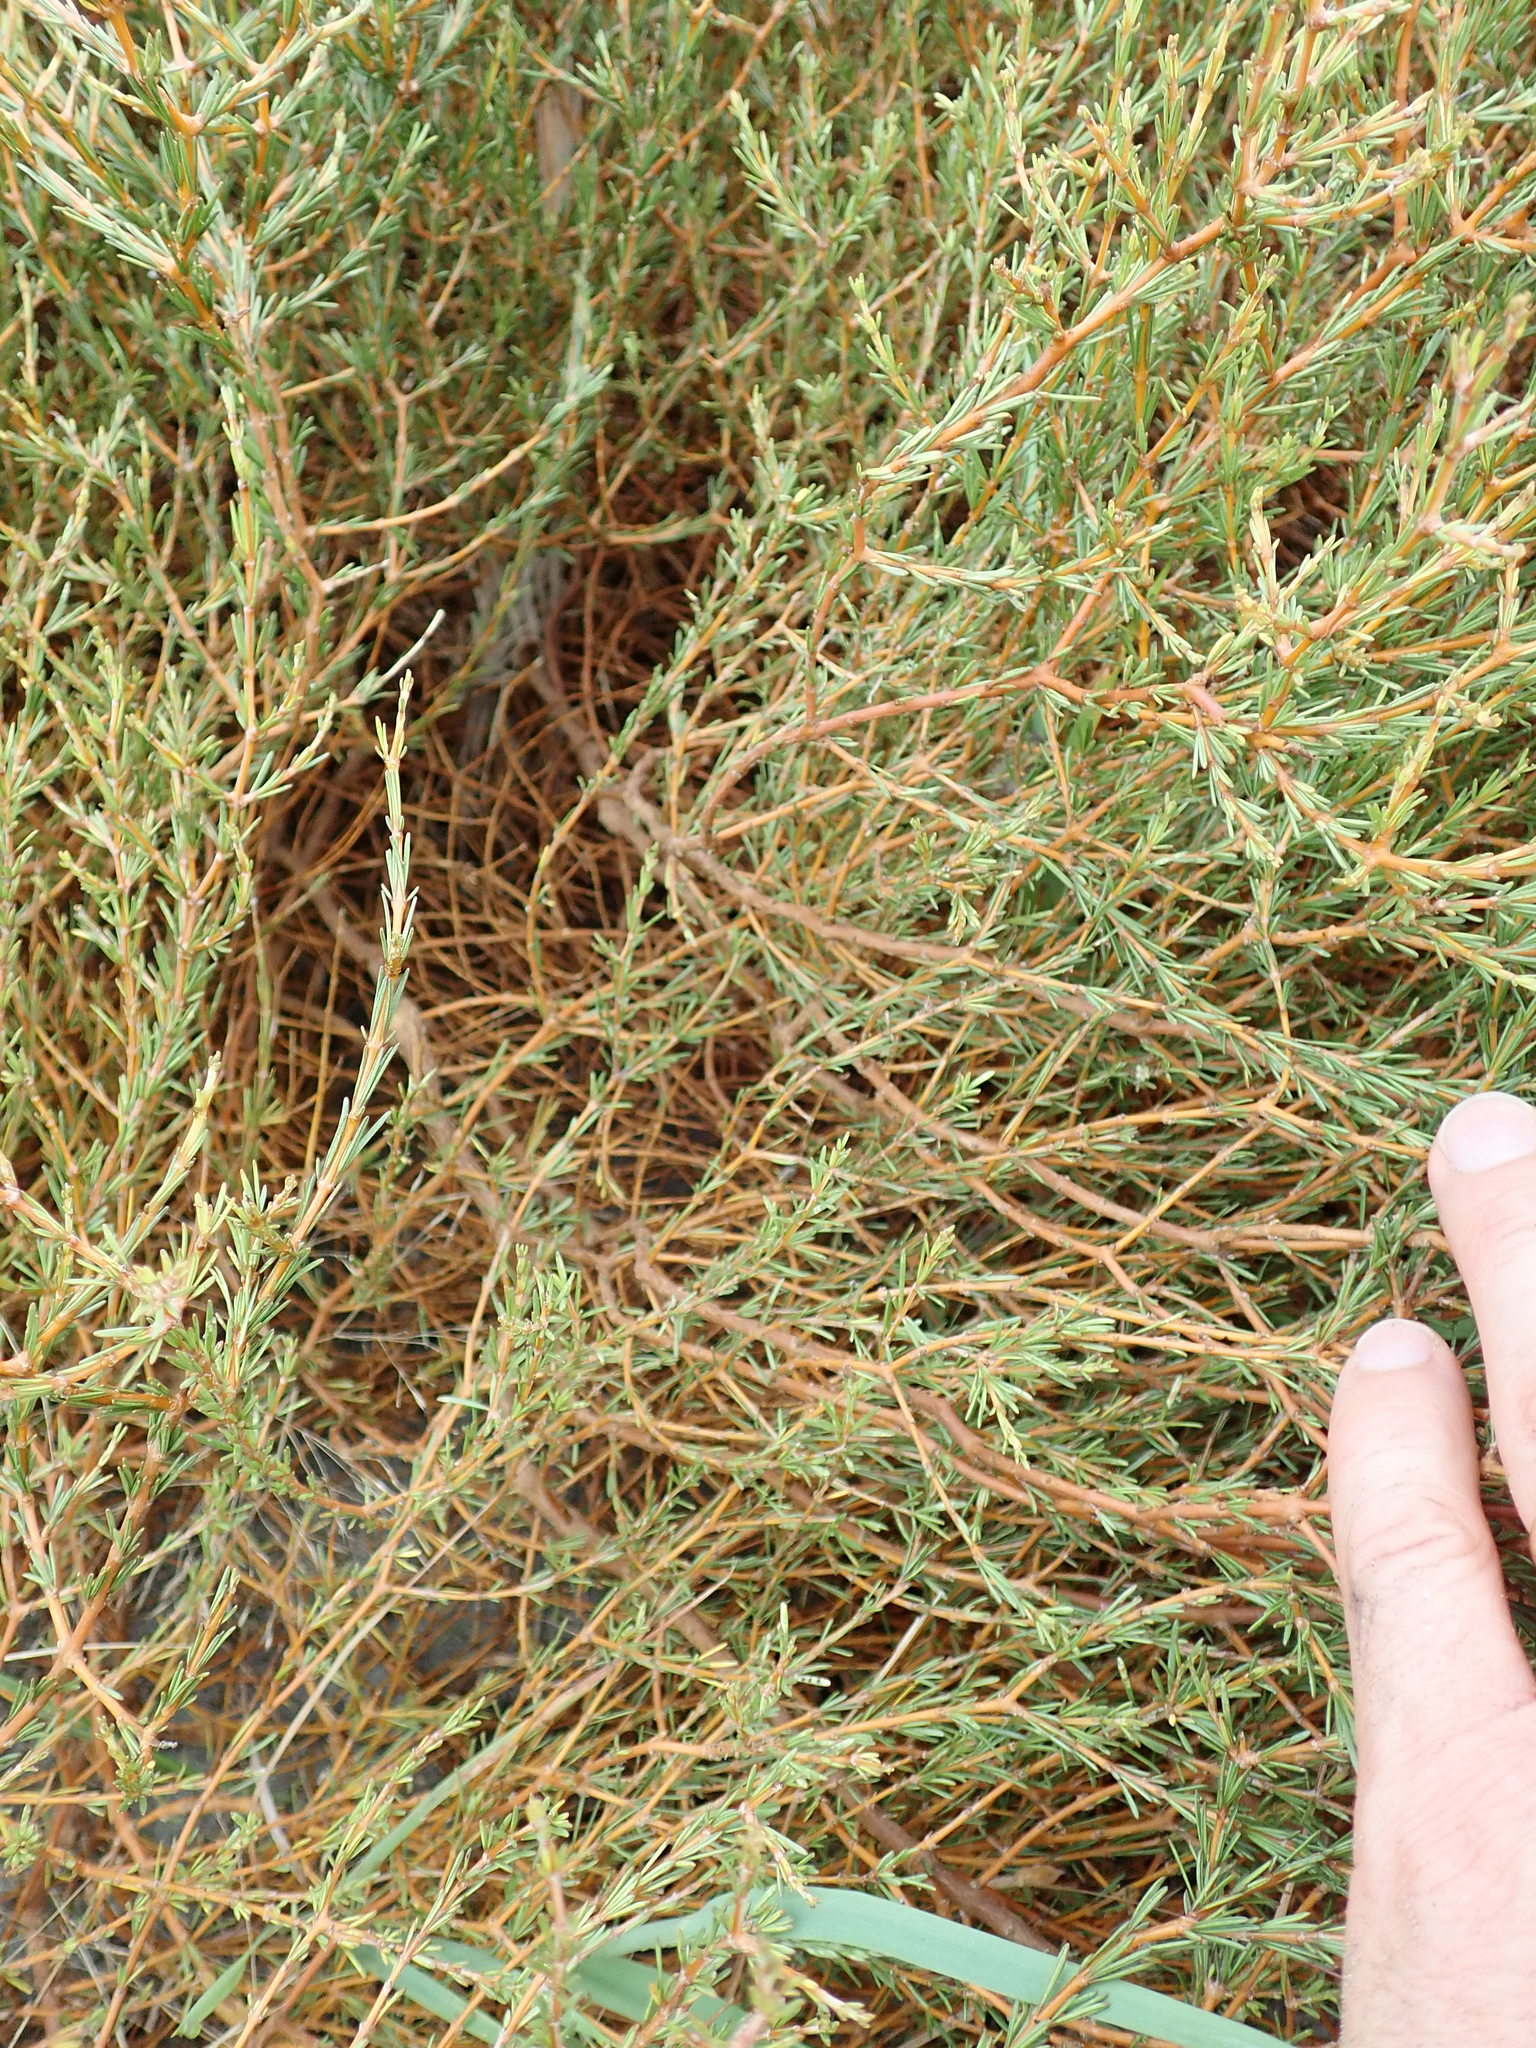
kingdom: Plantae
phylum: Tracheophyta
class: Magnoliopsida
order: Gentianales
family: Rubiaceae
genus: Coprosma
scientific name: Coprosma acerosa
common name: Sand coprosma
